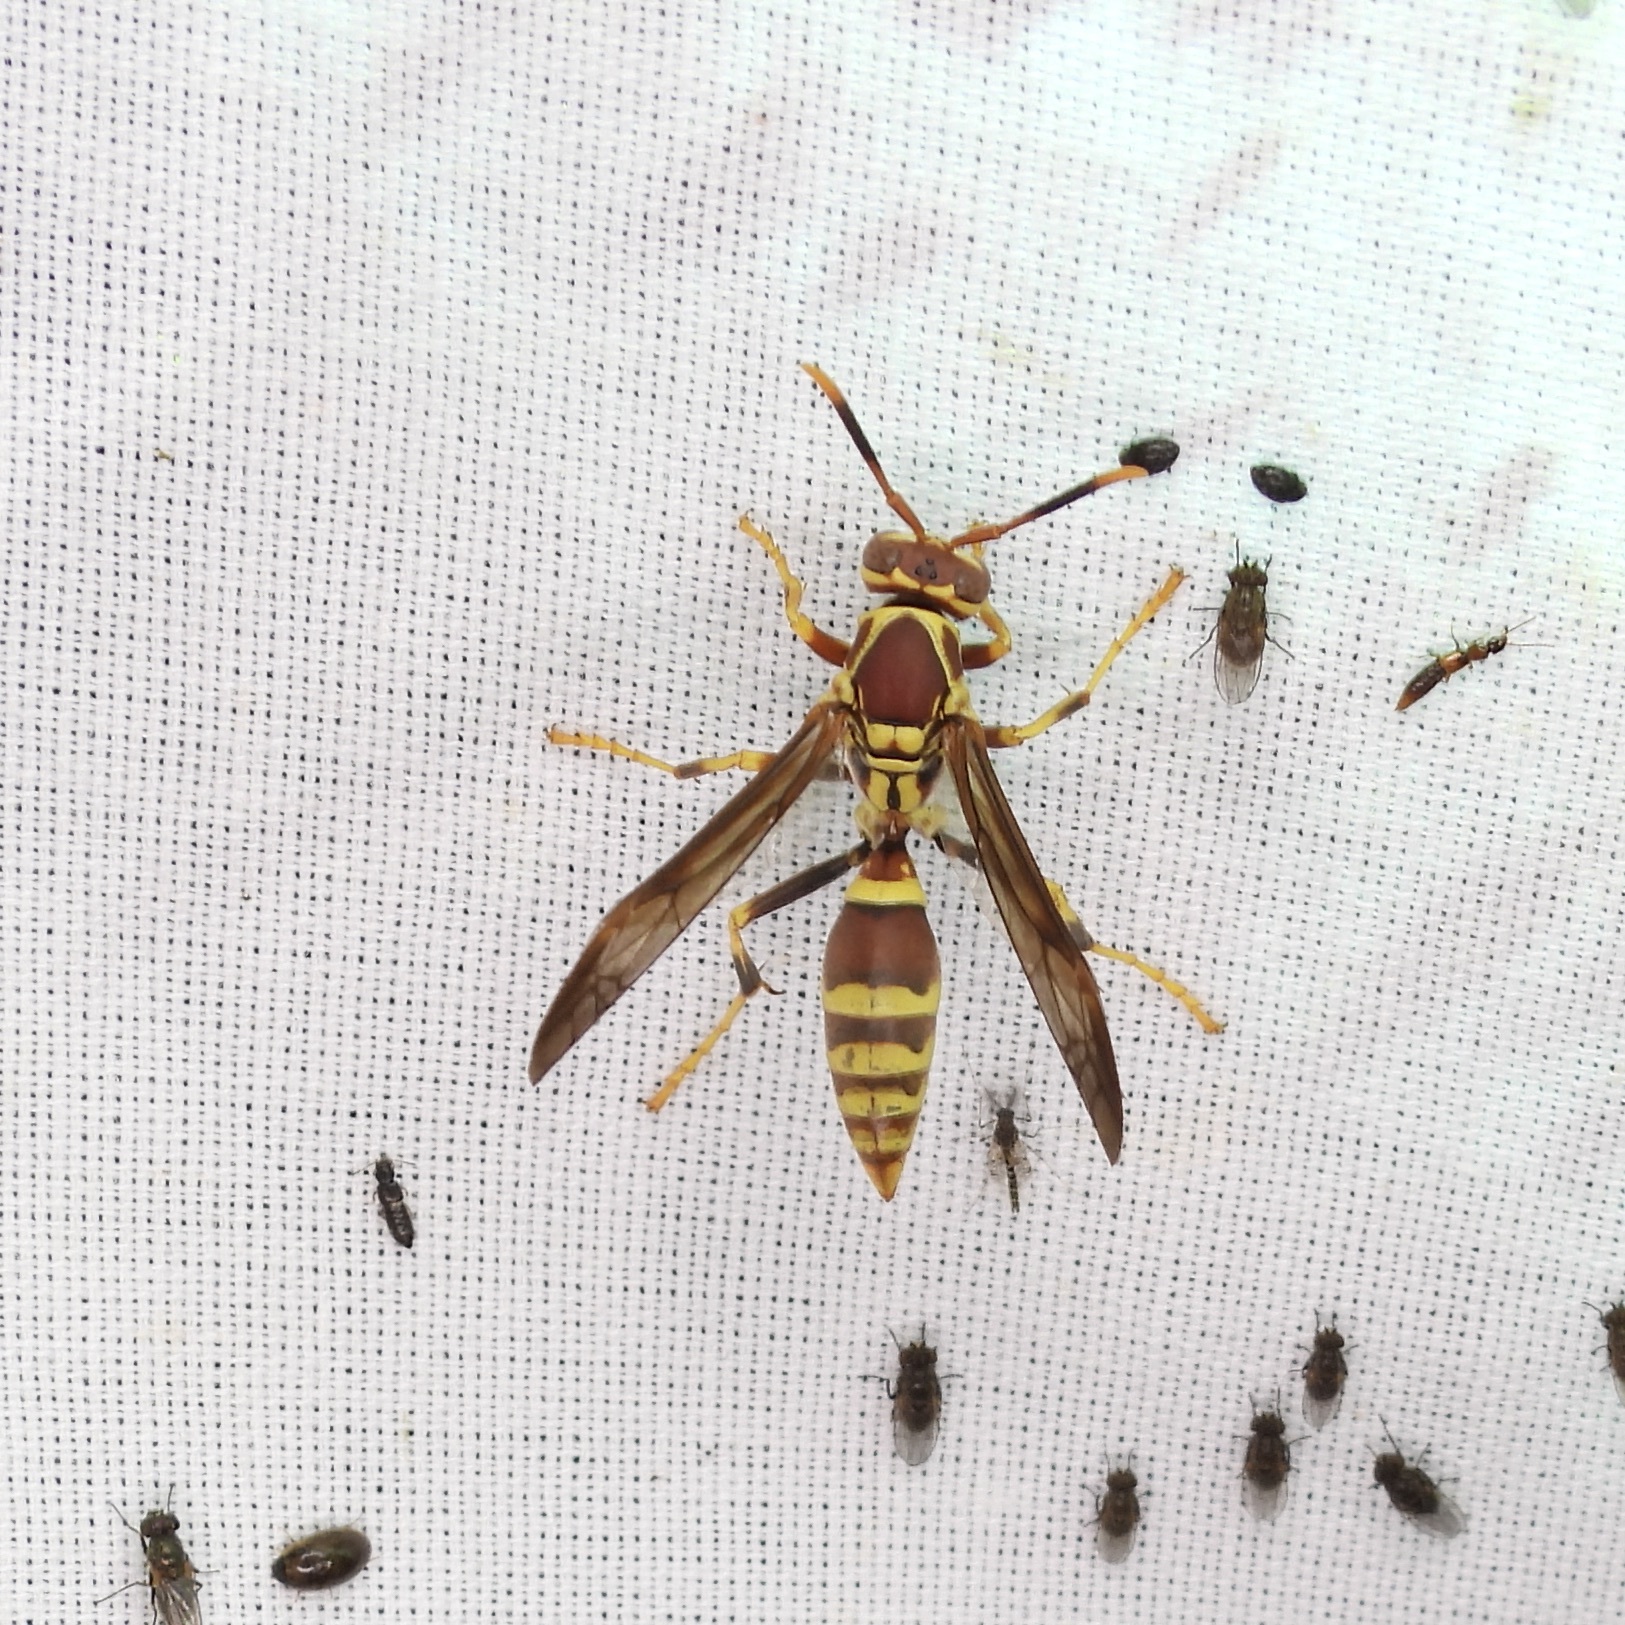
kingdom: Animalia
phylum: Arthropoda
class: Insecta
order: Hymenoptera
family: Eumenidae
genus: Polistes
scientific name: Polistes exclamans
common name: Paper wasp
